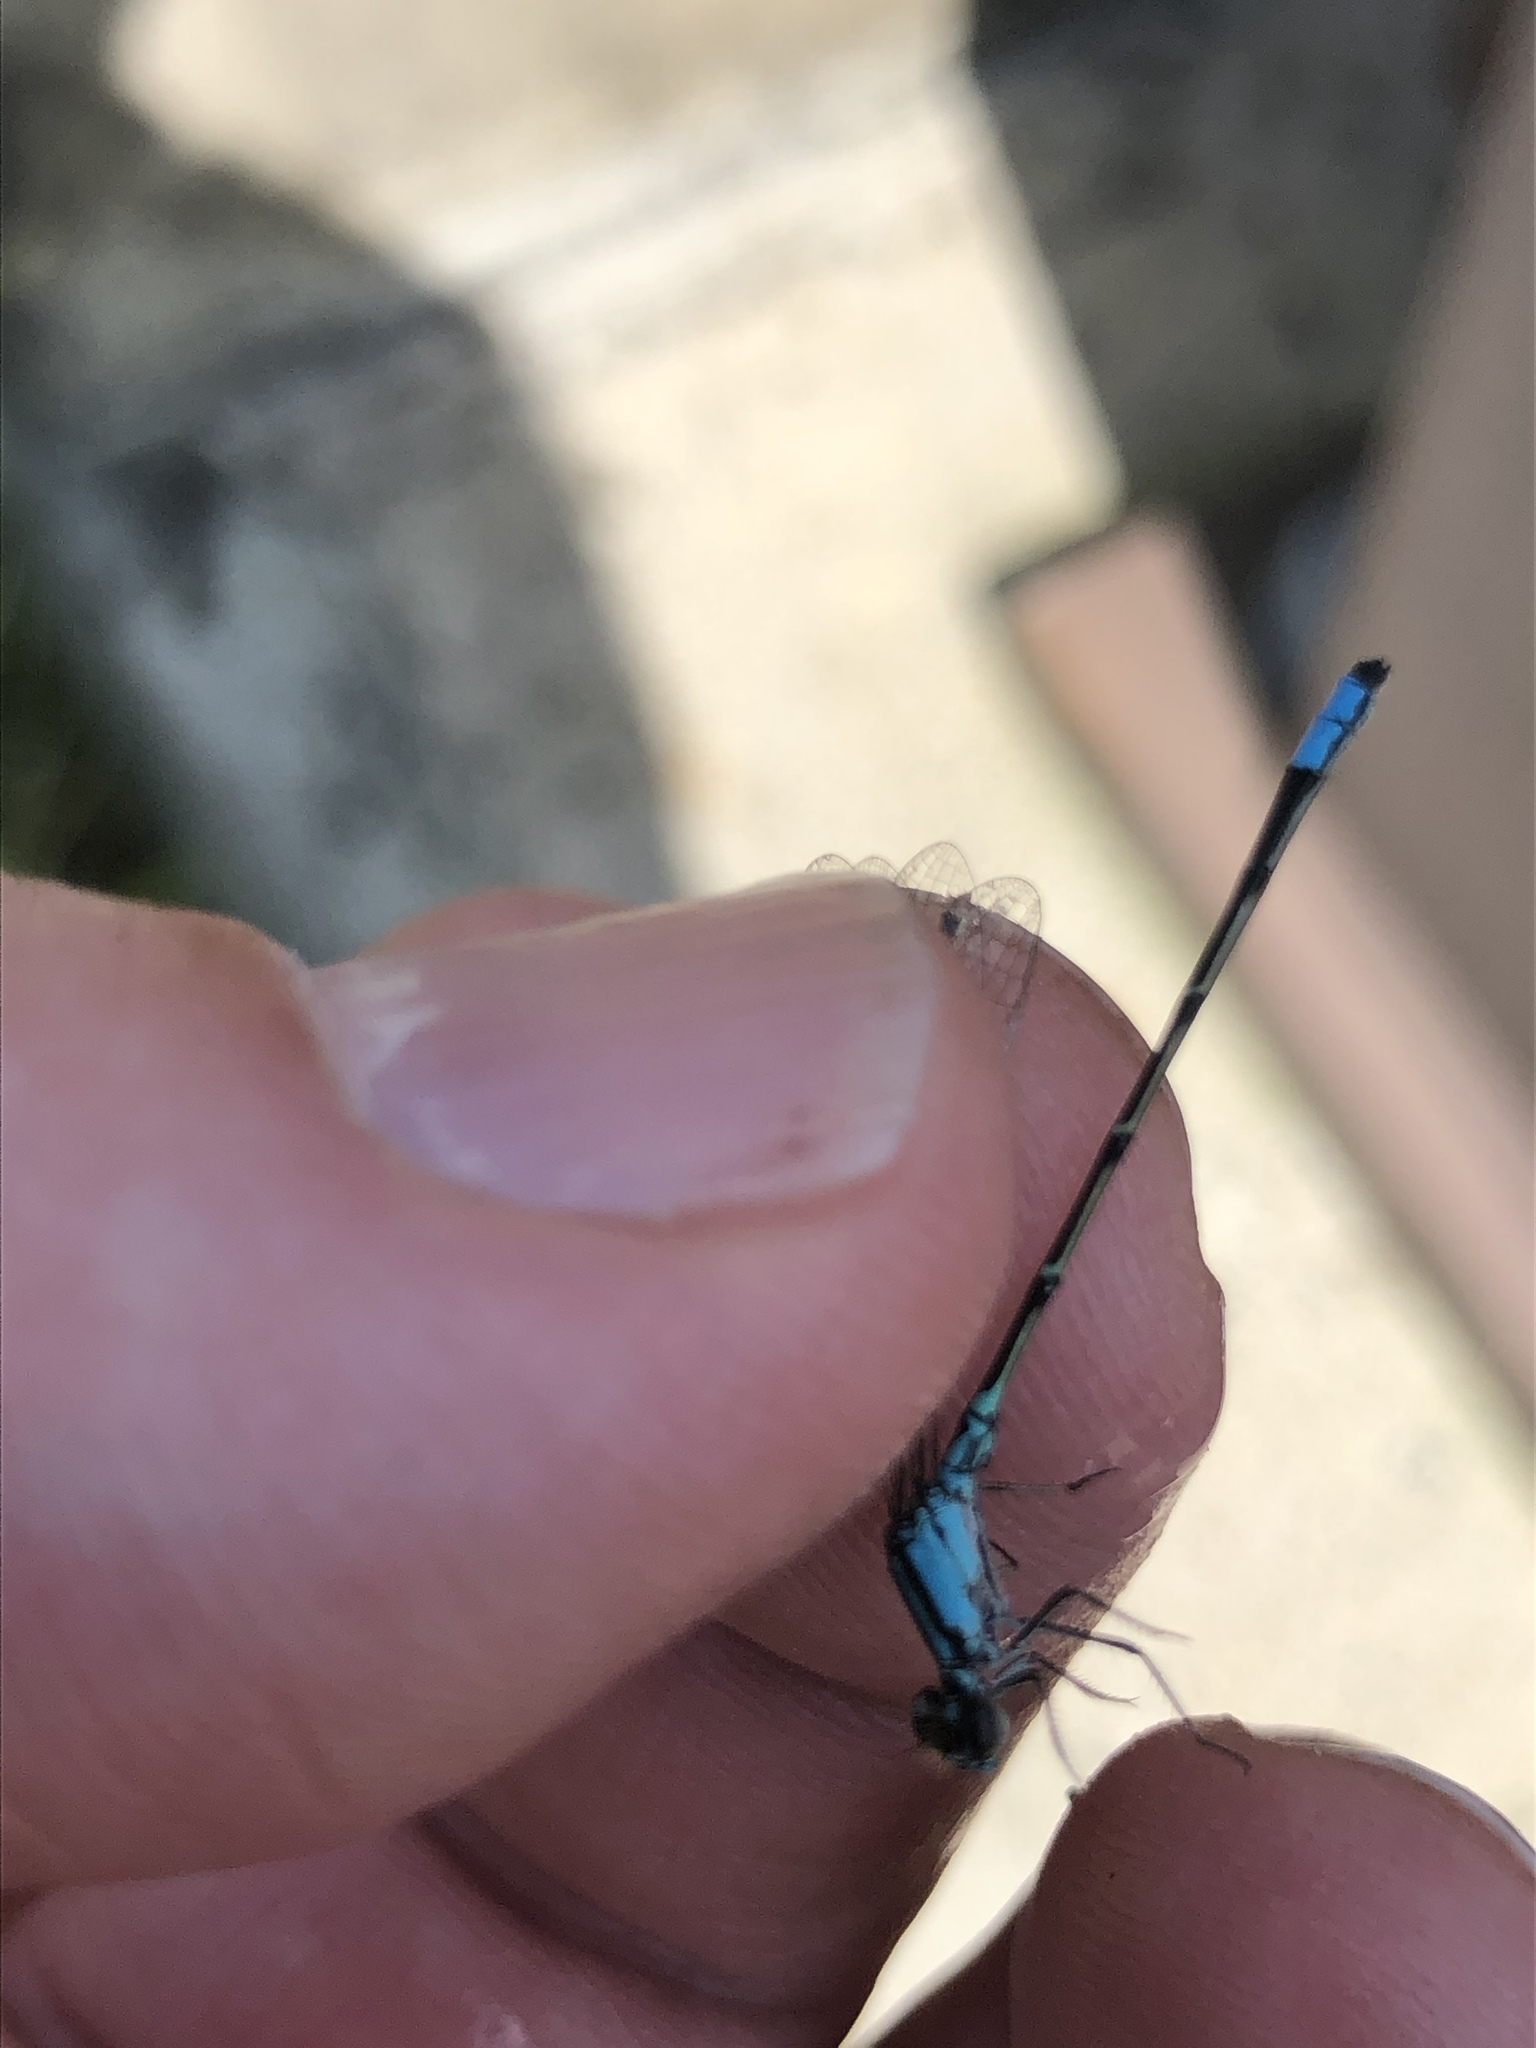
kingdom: Animalia
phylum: Arthropoda
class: Insecta
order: Odonata
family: Coenagrionidae
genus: Enallagma
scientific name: Enallagma geminatum
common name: Skimming bluet
